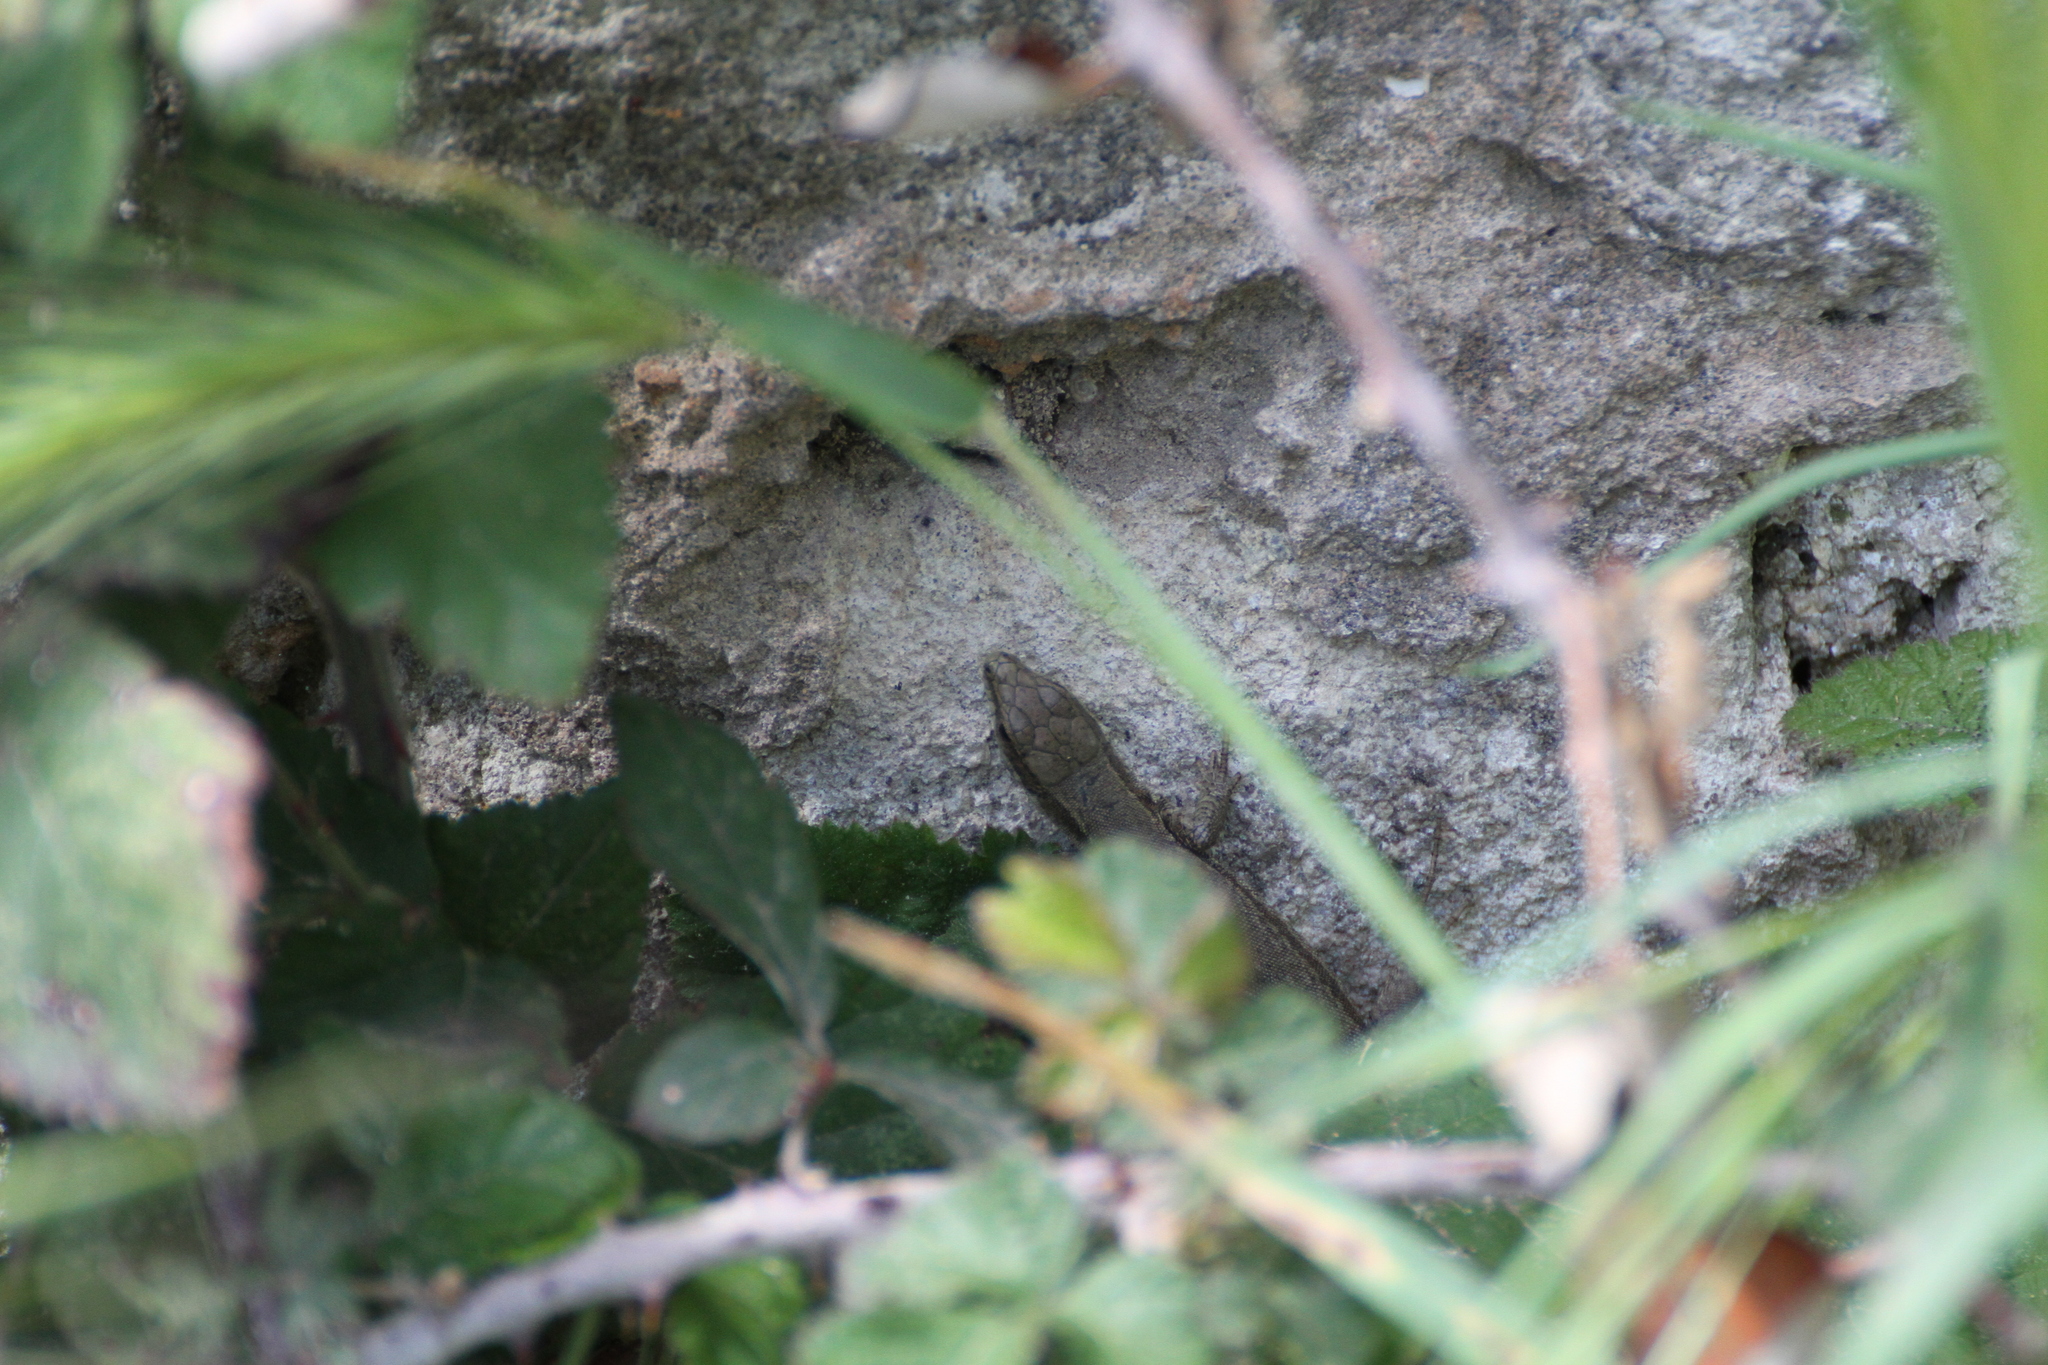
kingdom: Animalia
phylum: Chordata
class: Squamata
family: Lacertidae
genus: Podarcis
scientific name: Podarcis muralis
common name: Common wall lizard
